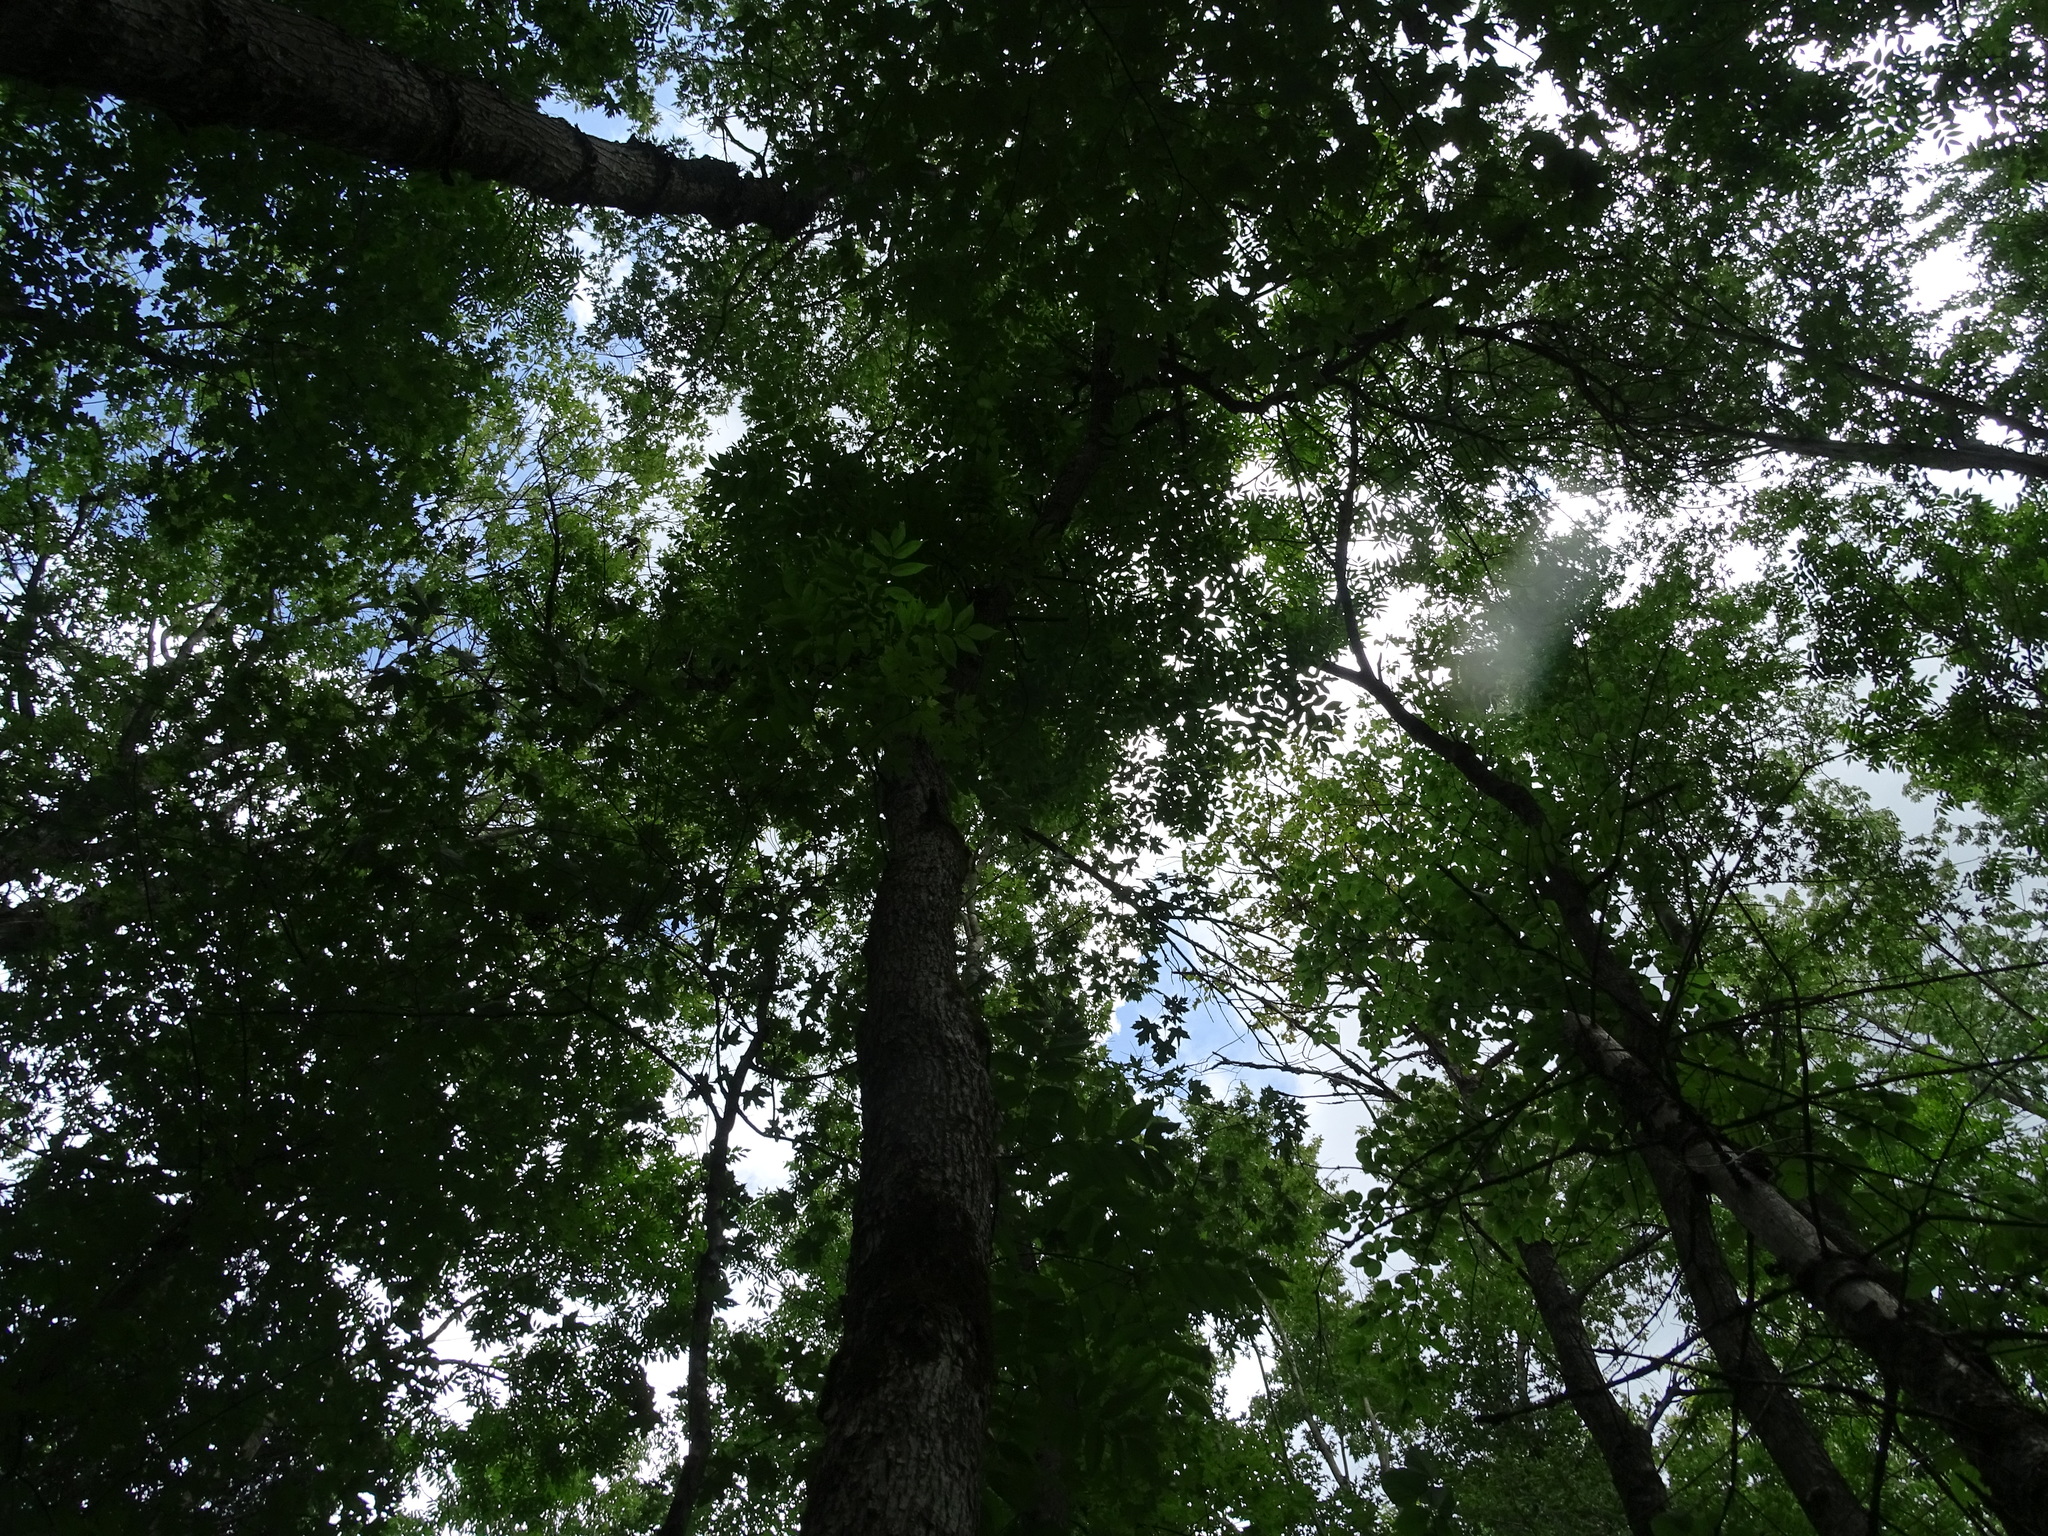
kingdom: Plantae
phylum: Tracheophyta
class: Magnoliopsida
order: Lamiales
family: Oleaceae
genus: Fraxinus
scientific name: Fraxinus nigra
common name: Black ash
